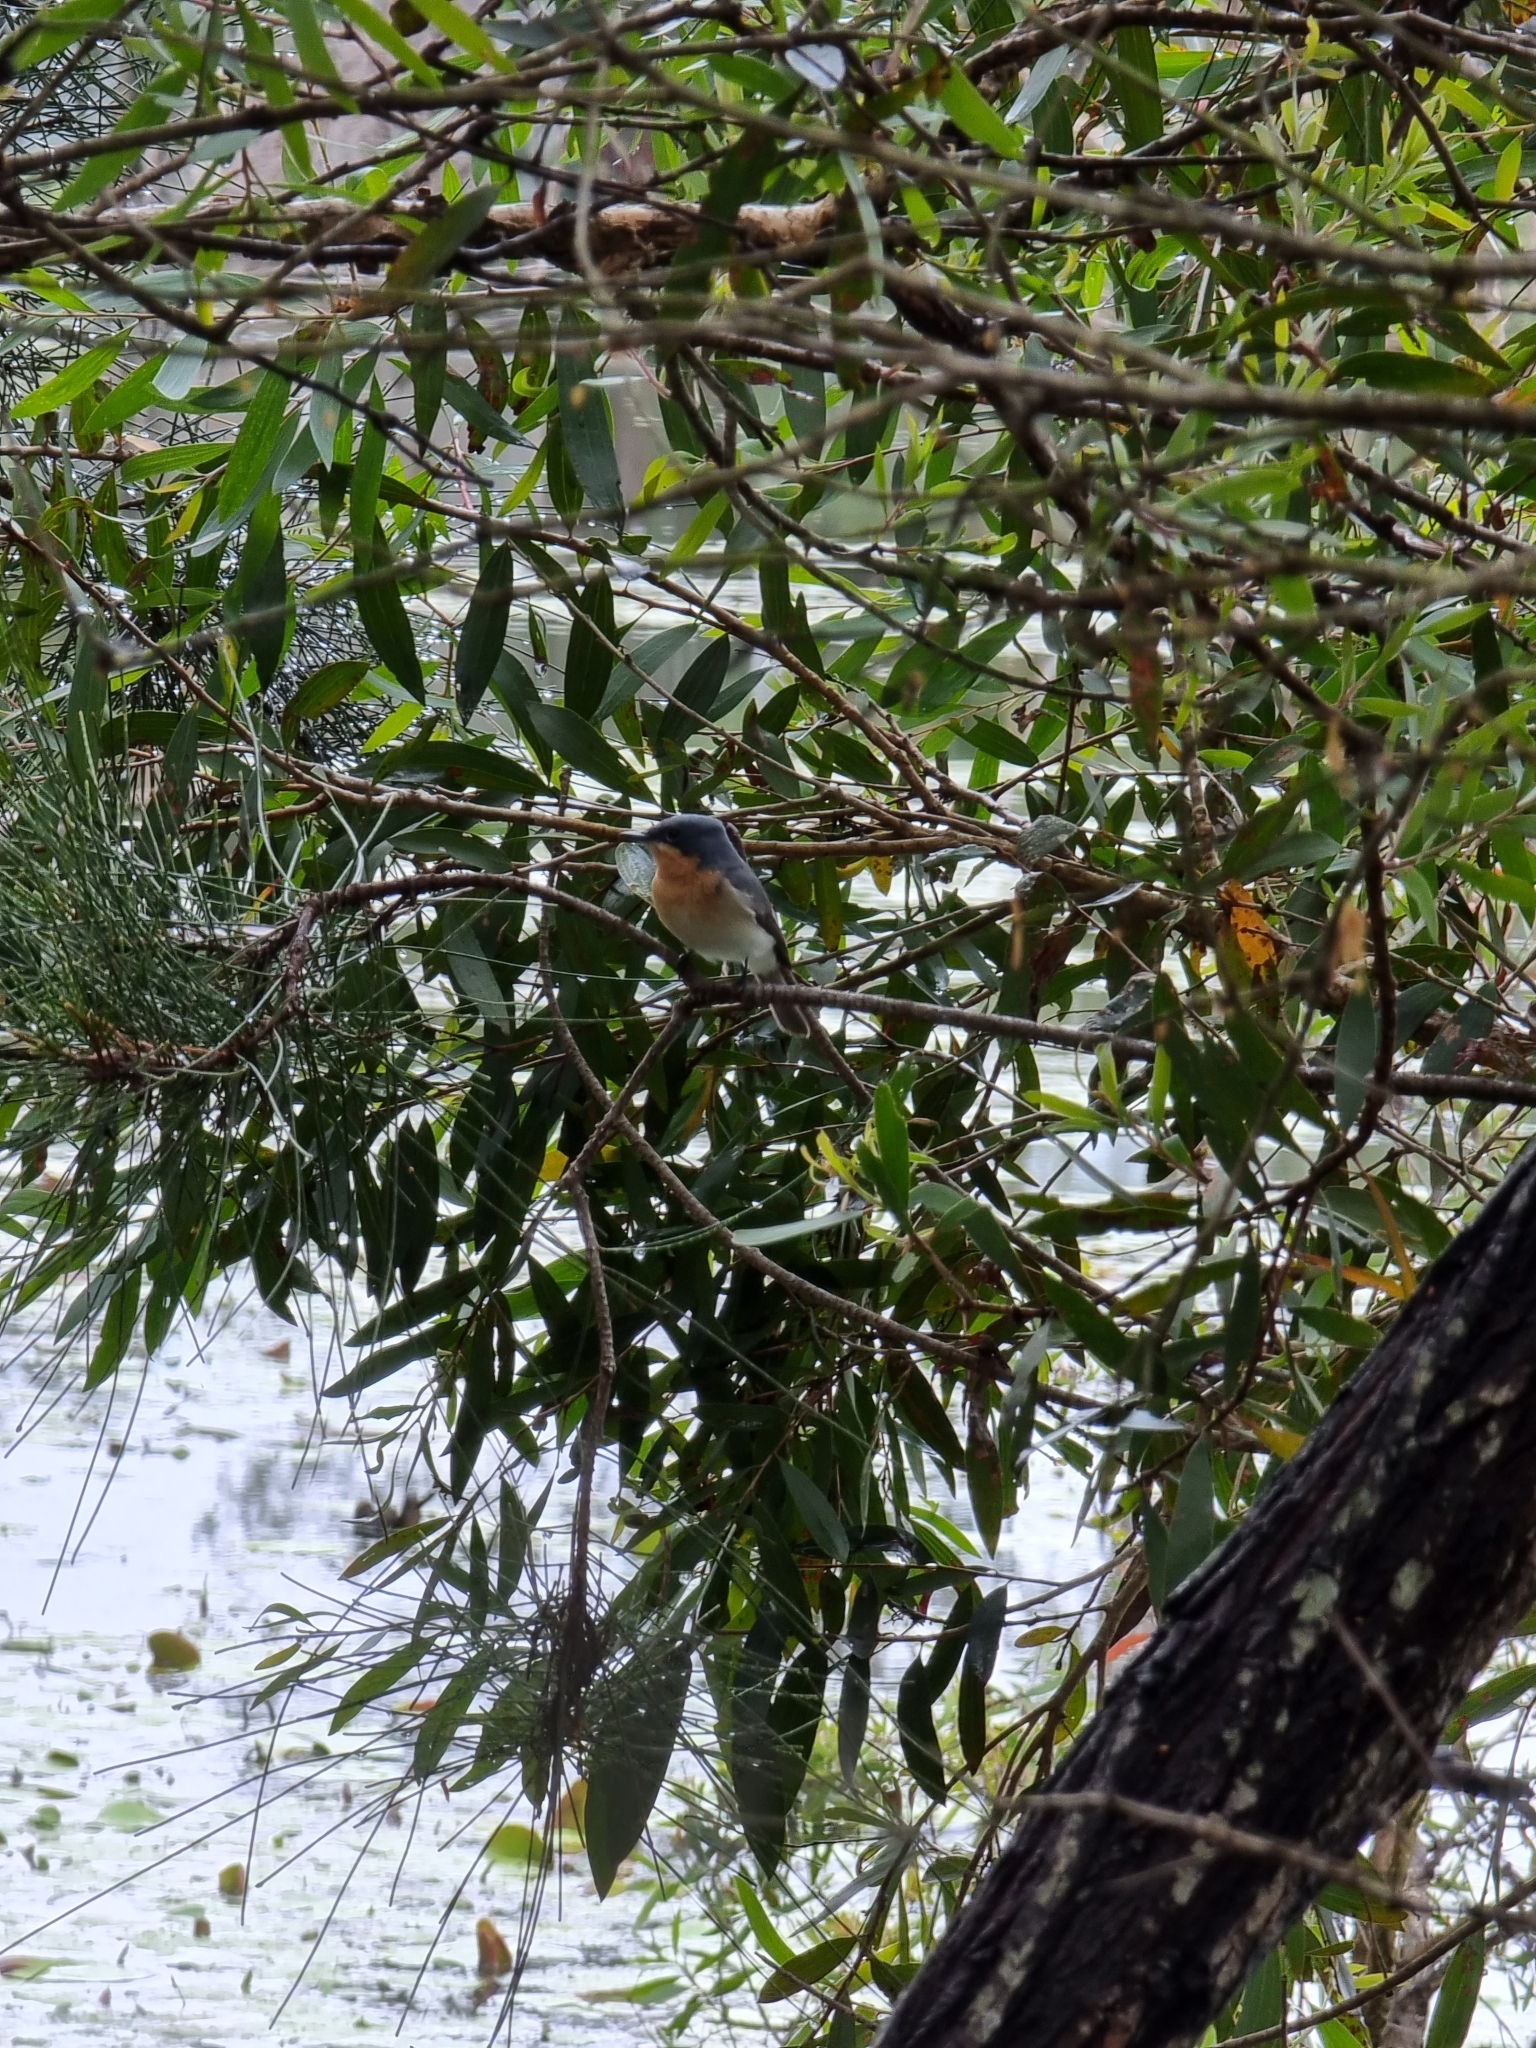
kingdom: Animalia
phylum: Chordata
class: Aves
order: Passeriformes
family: Monarchidae
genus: Myiagra
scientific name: Myiagra rubecula
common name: Leaden flycatcher
